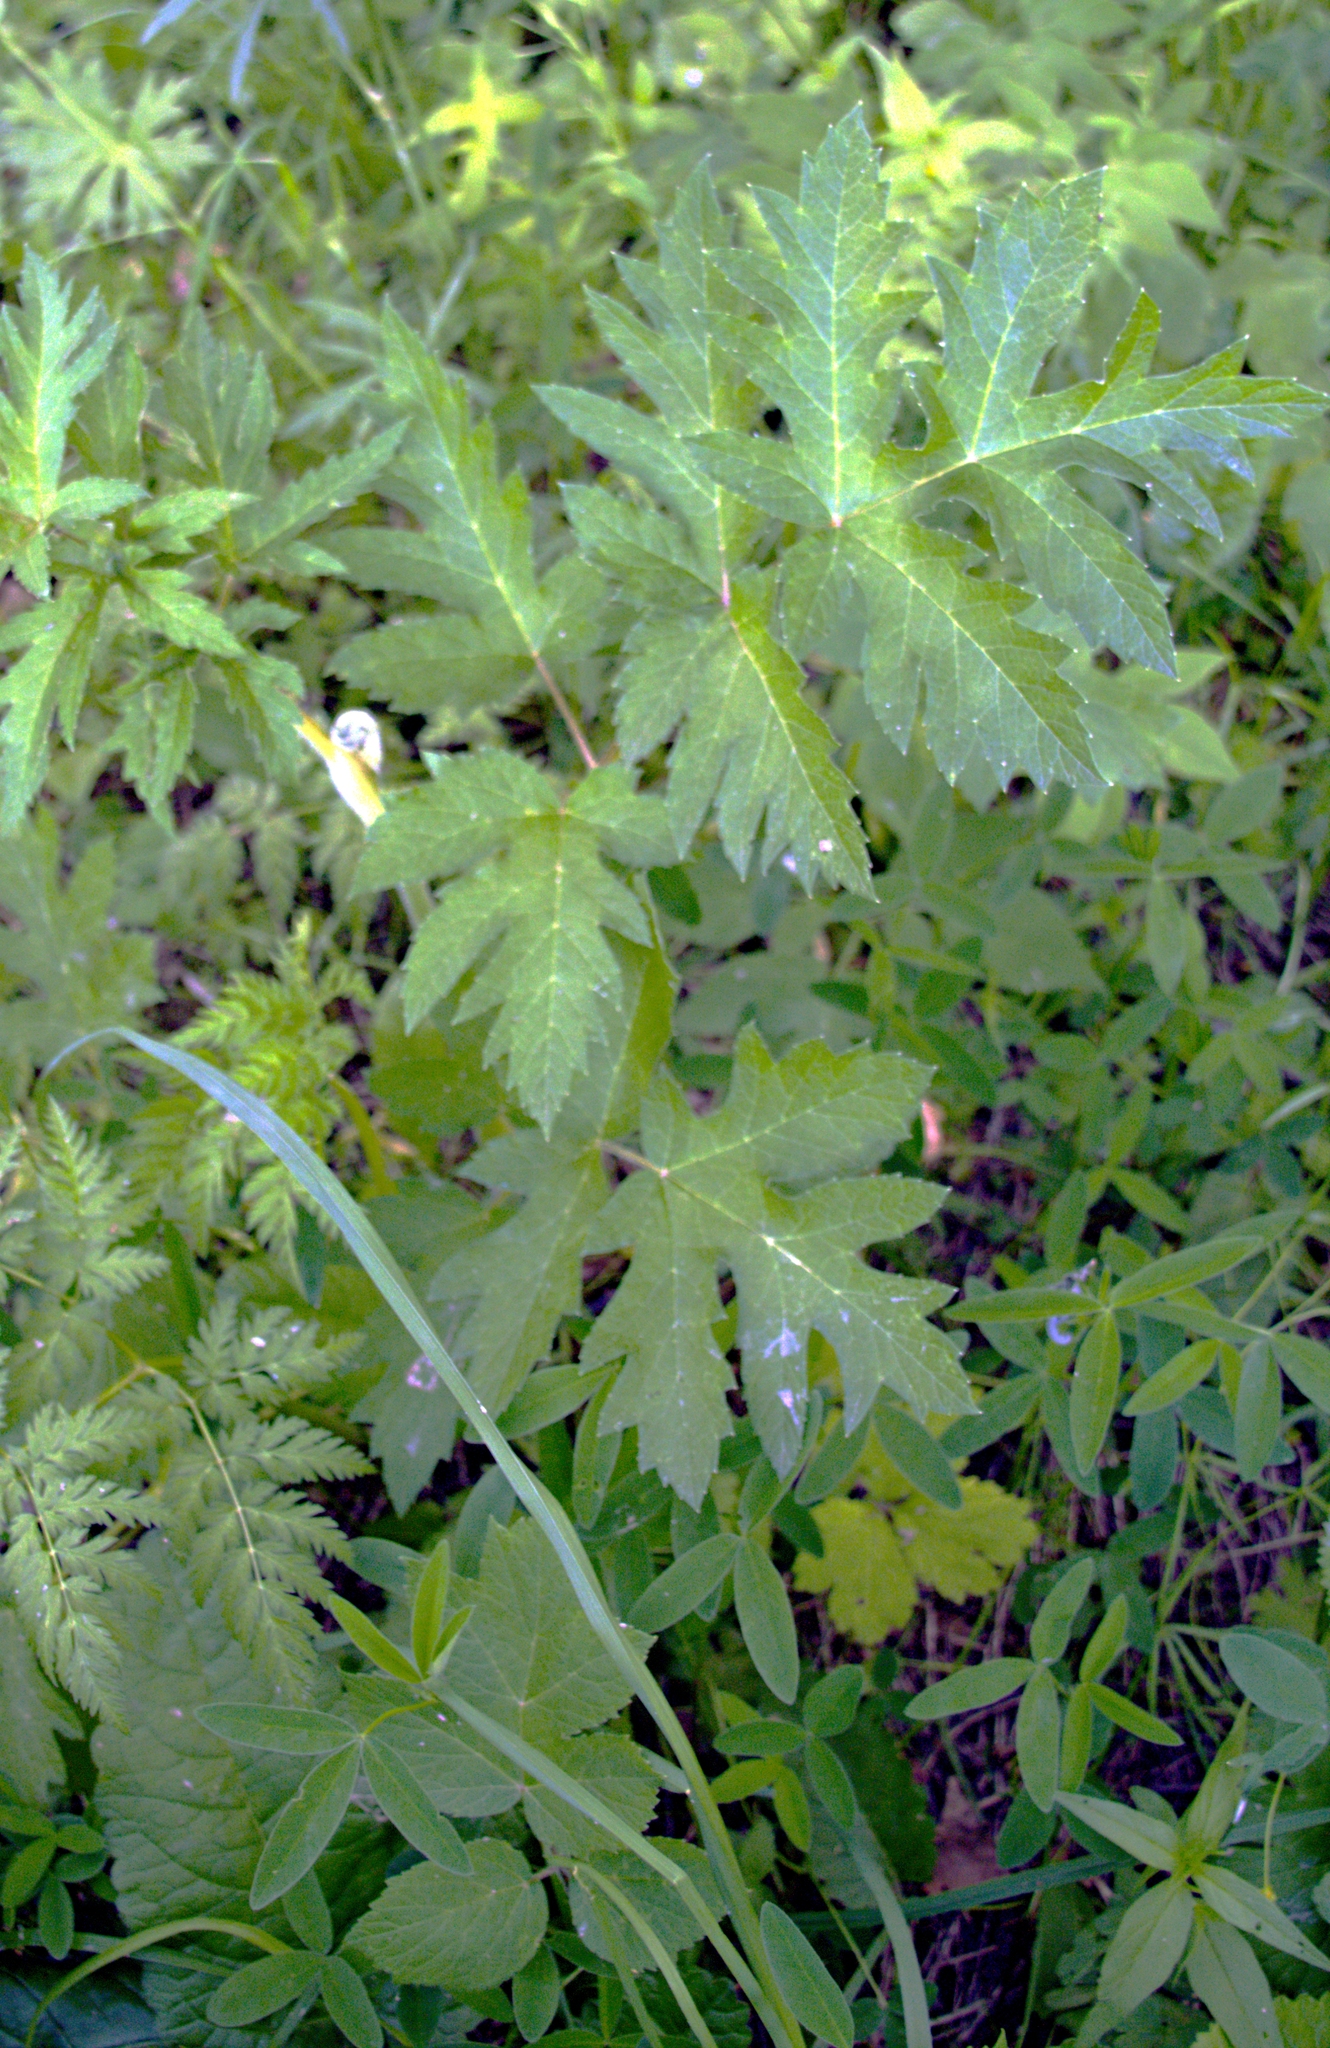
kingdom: Plantae
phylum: Tracheophyta
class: Magnoliopsida
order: Apiales
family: Apiaceae
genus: Heracleum
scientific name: Heracleum sphondylium
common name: Hogweed
